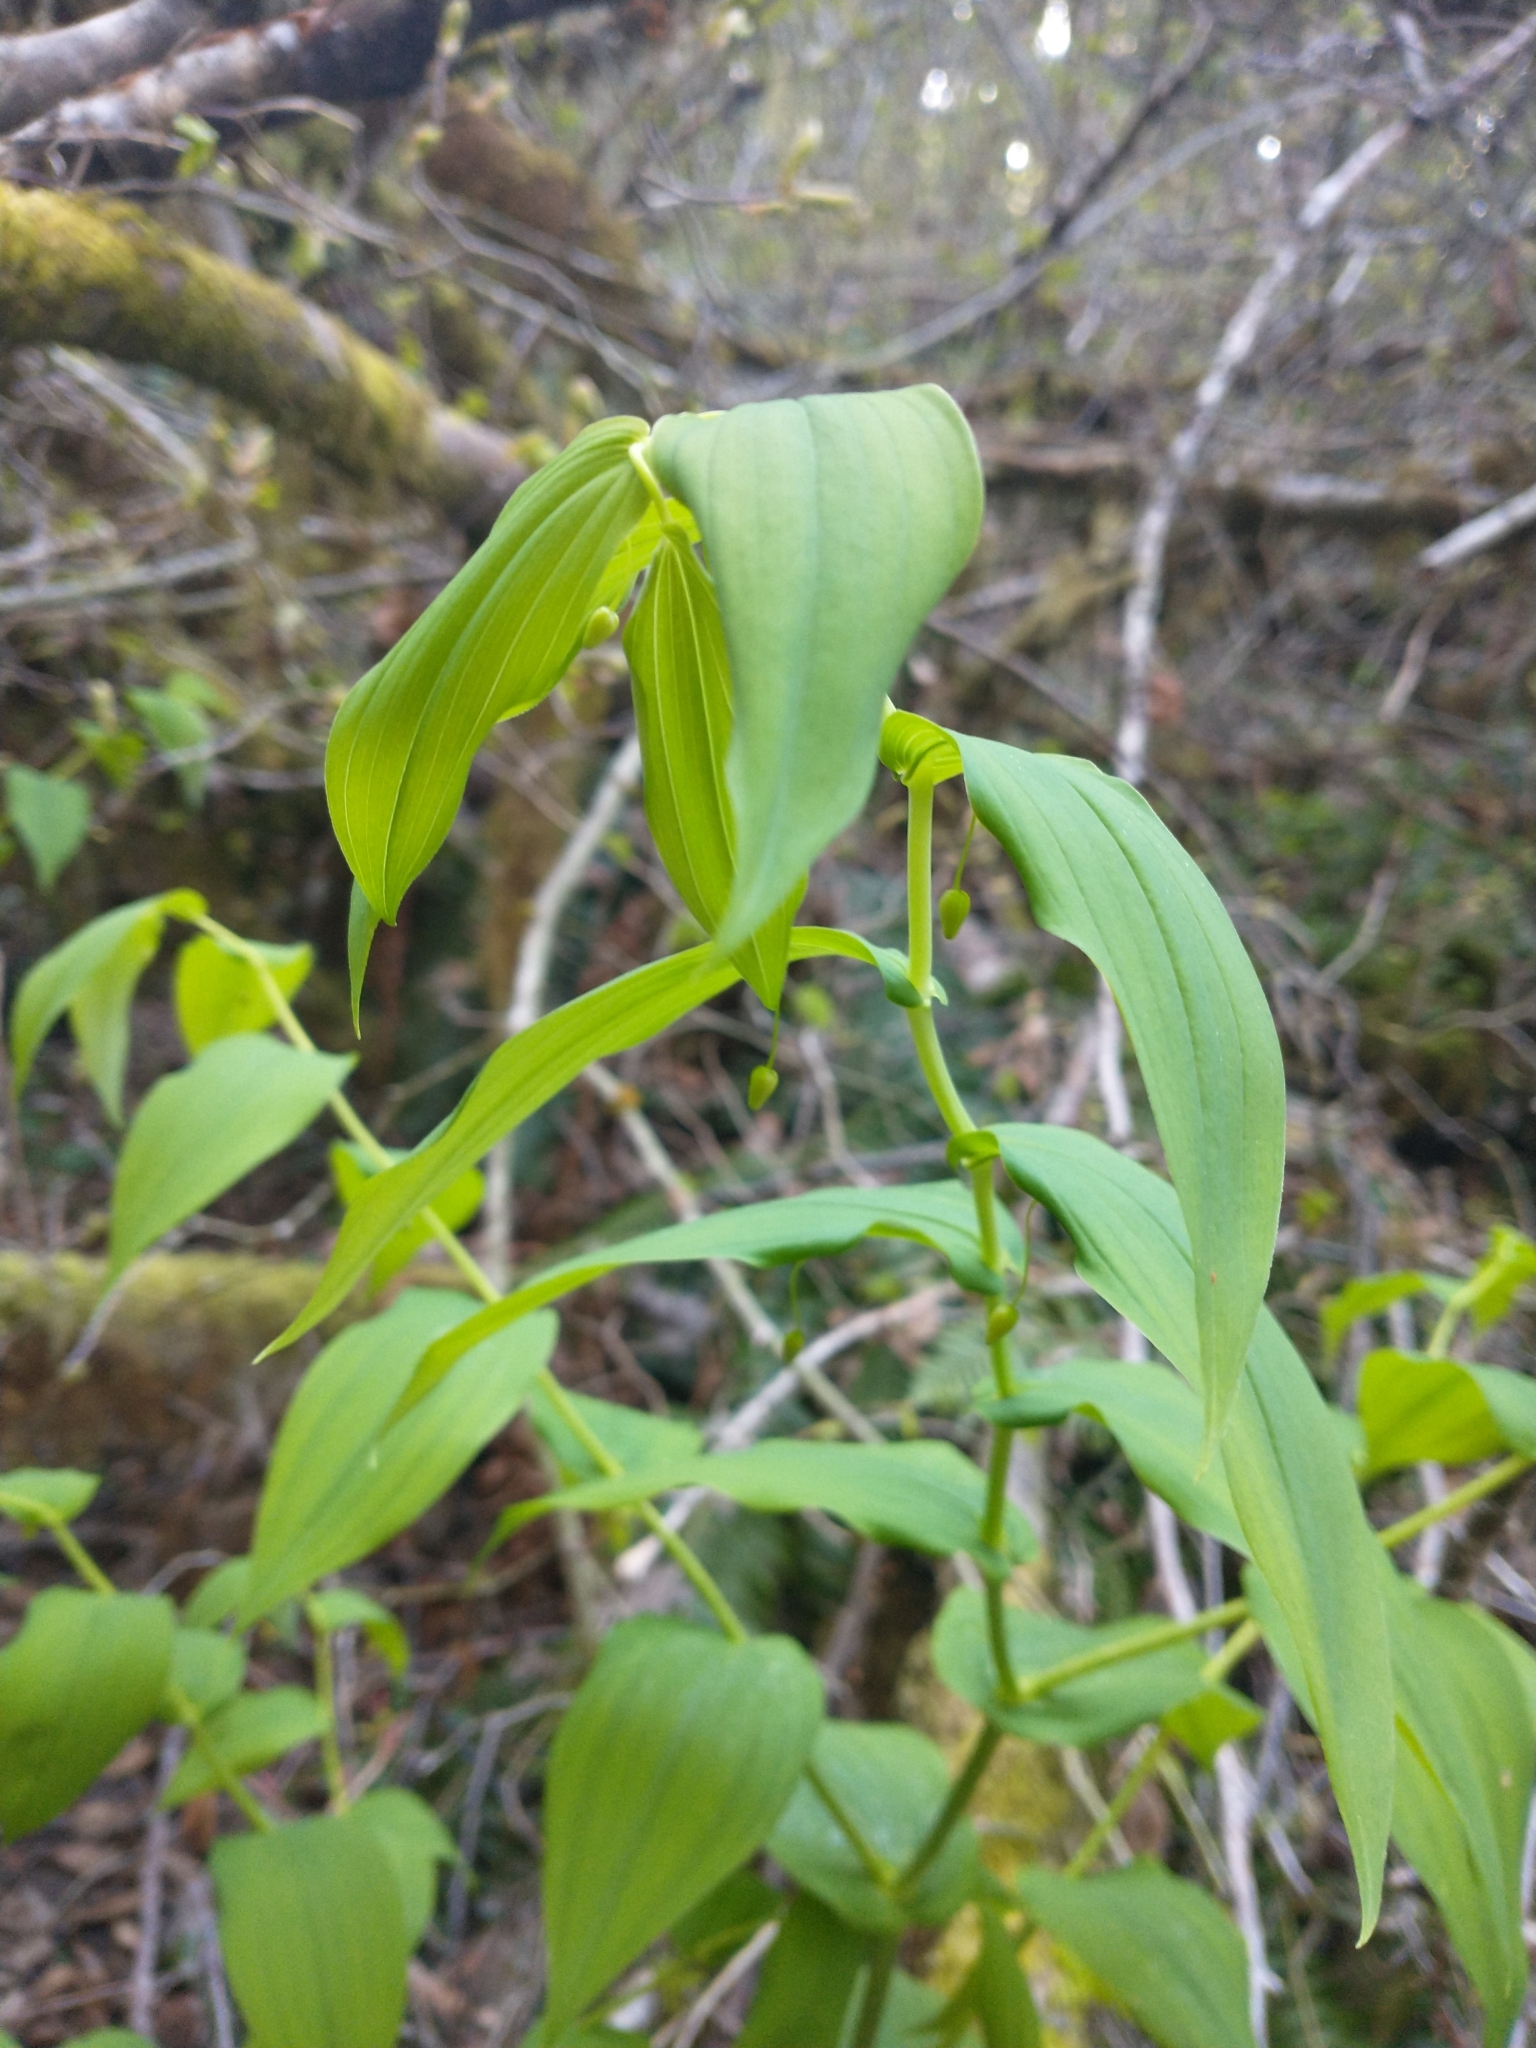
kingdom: Plantae
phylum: Tracheophyta
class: Liliopsida
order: Liliales
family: Liliaceae
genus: Streptopus
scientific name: Streptopus amplexifolius
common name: Clasp twisted stalk
